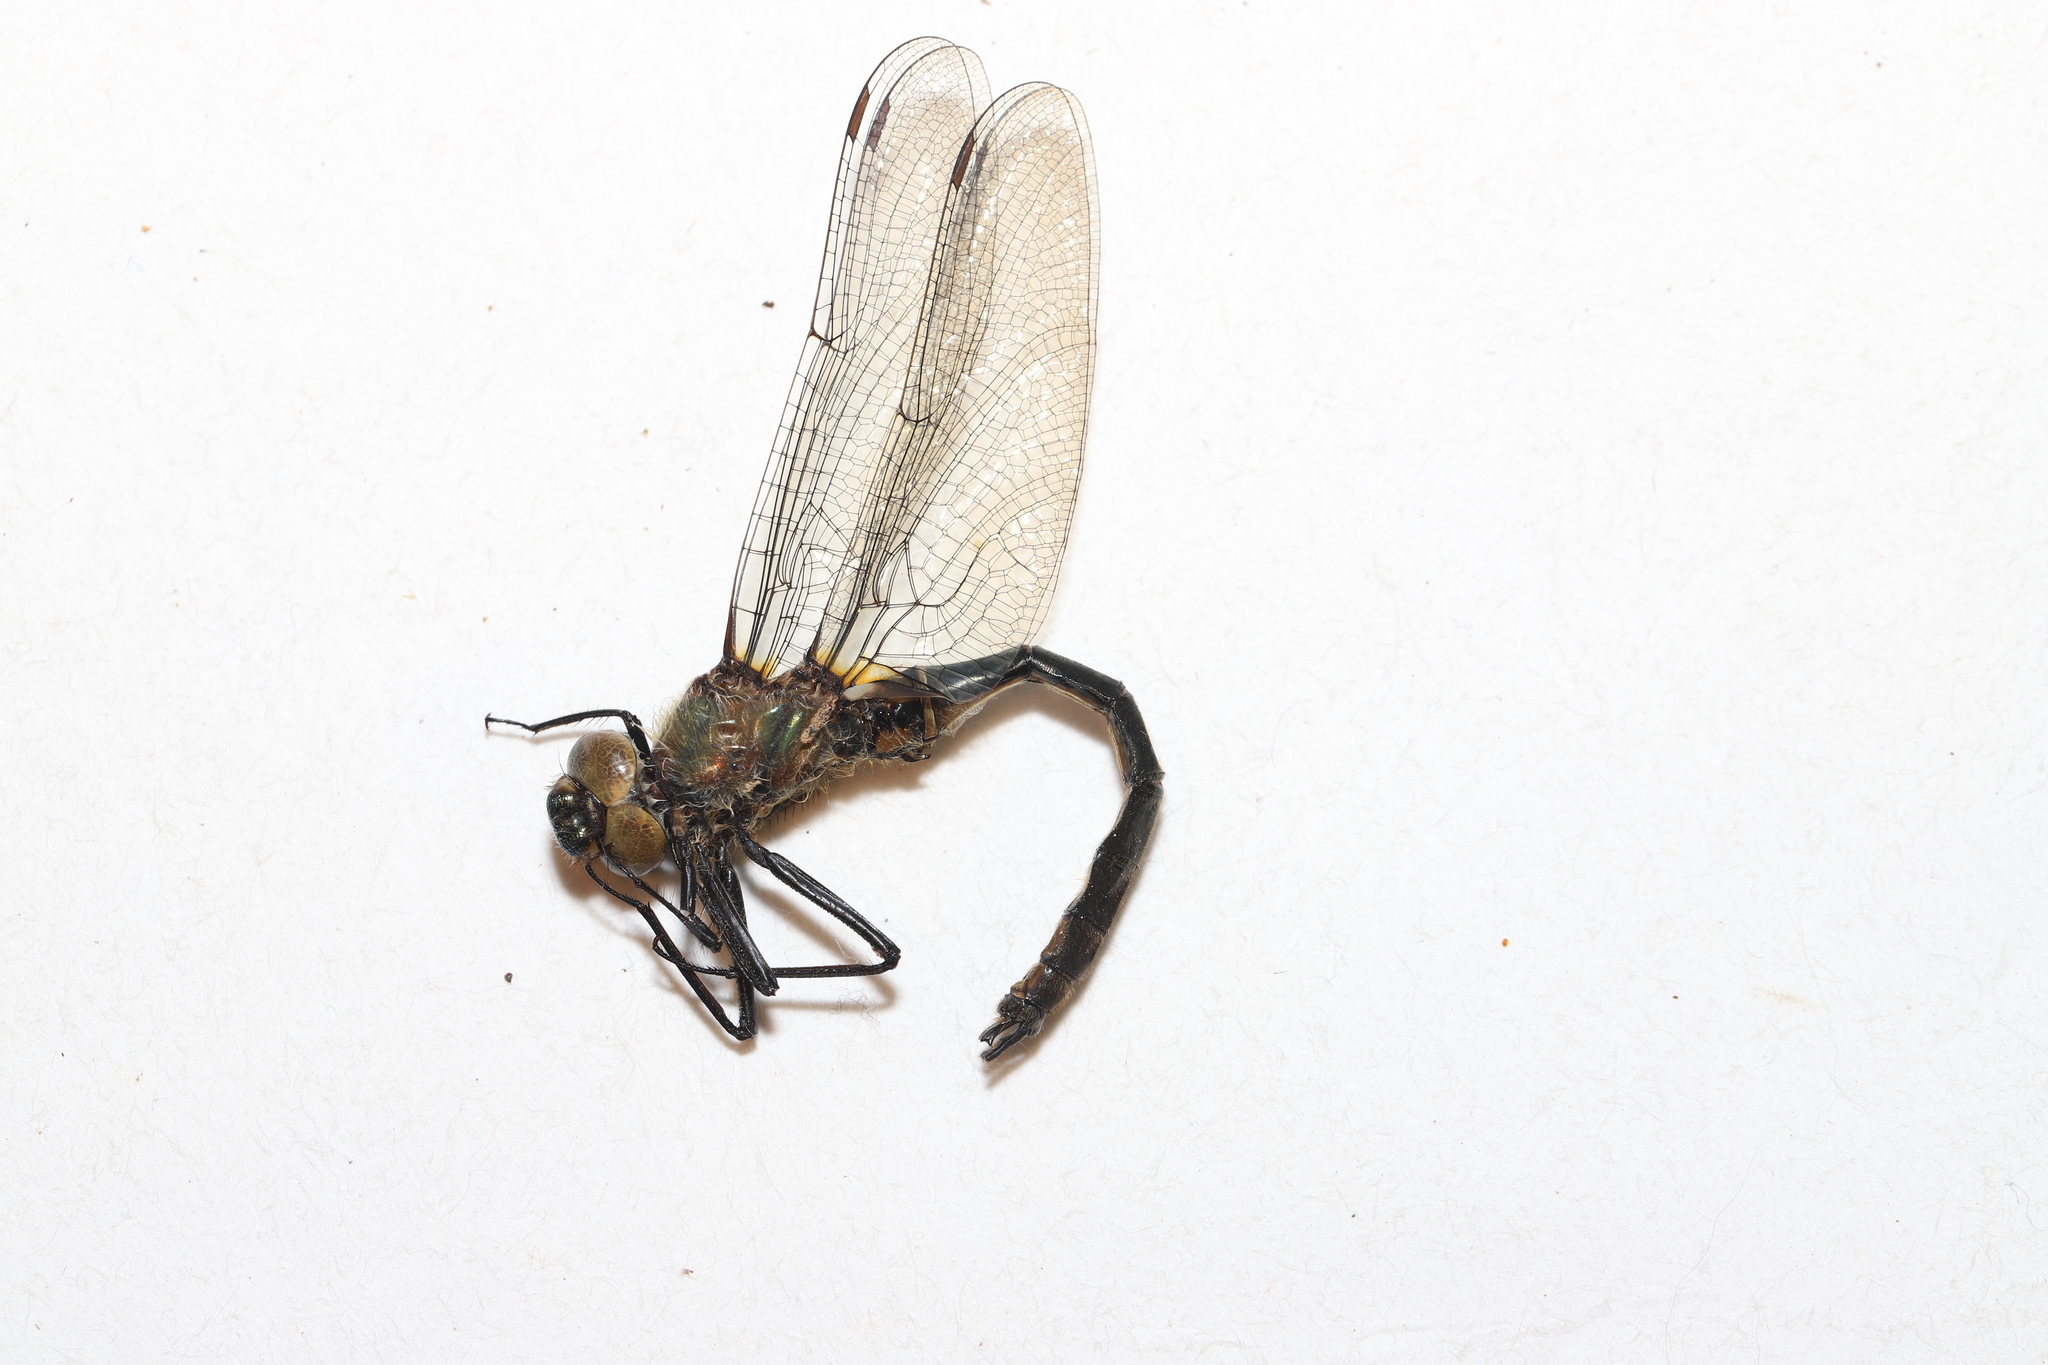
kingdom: Animalia
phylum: Arthropoda
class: Insecta
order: Odonata
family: Corduliidae
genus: Cordulia
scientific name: Cordulia shurtleffii
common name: American emerald
